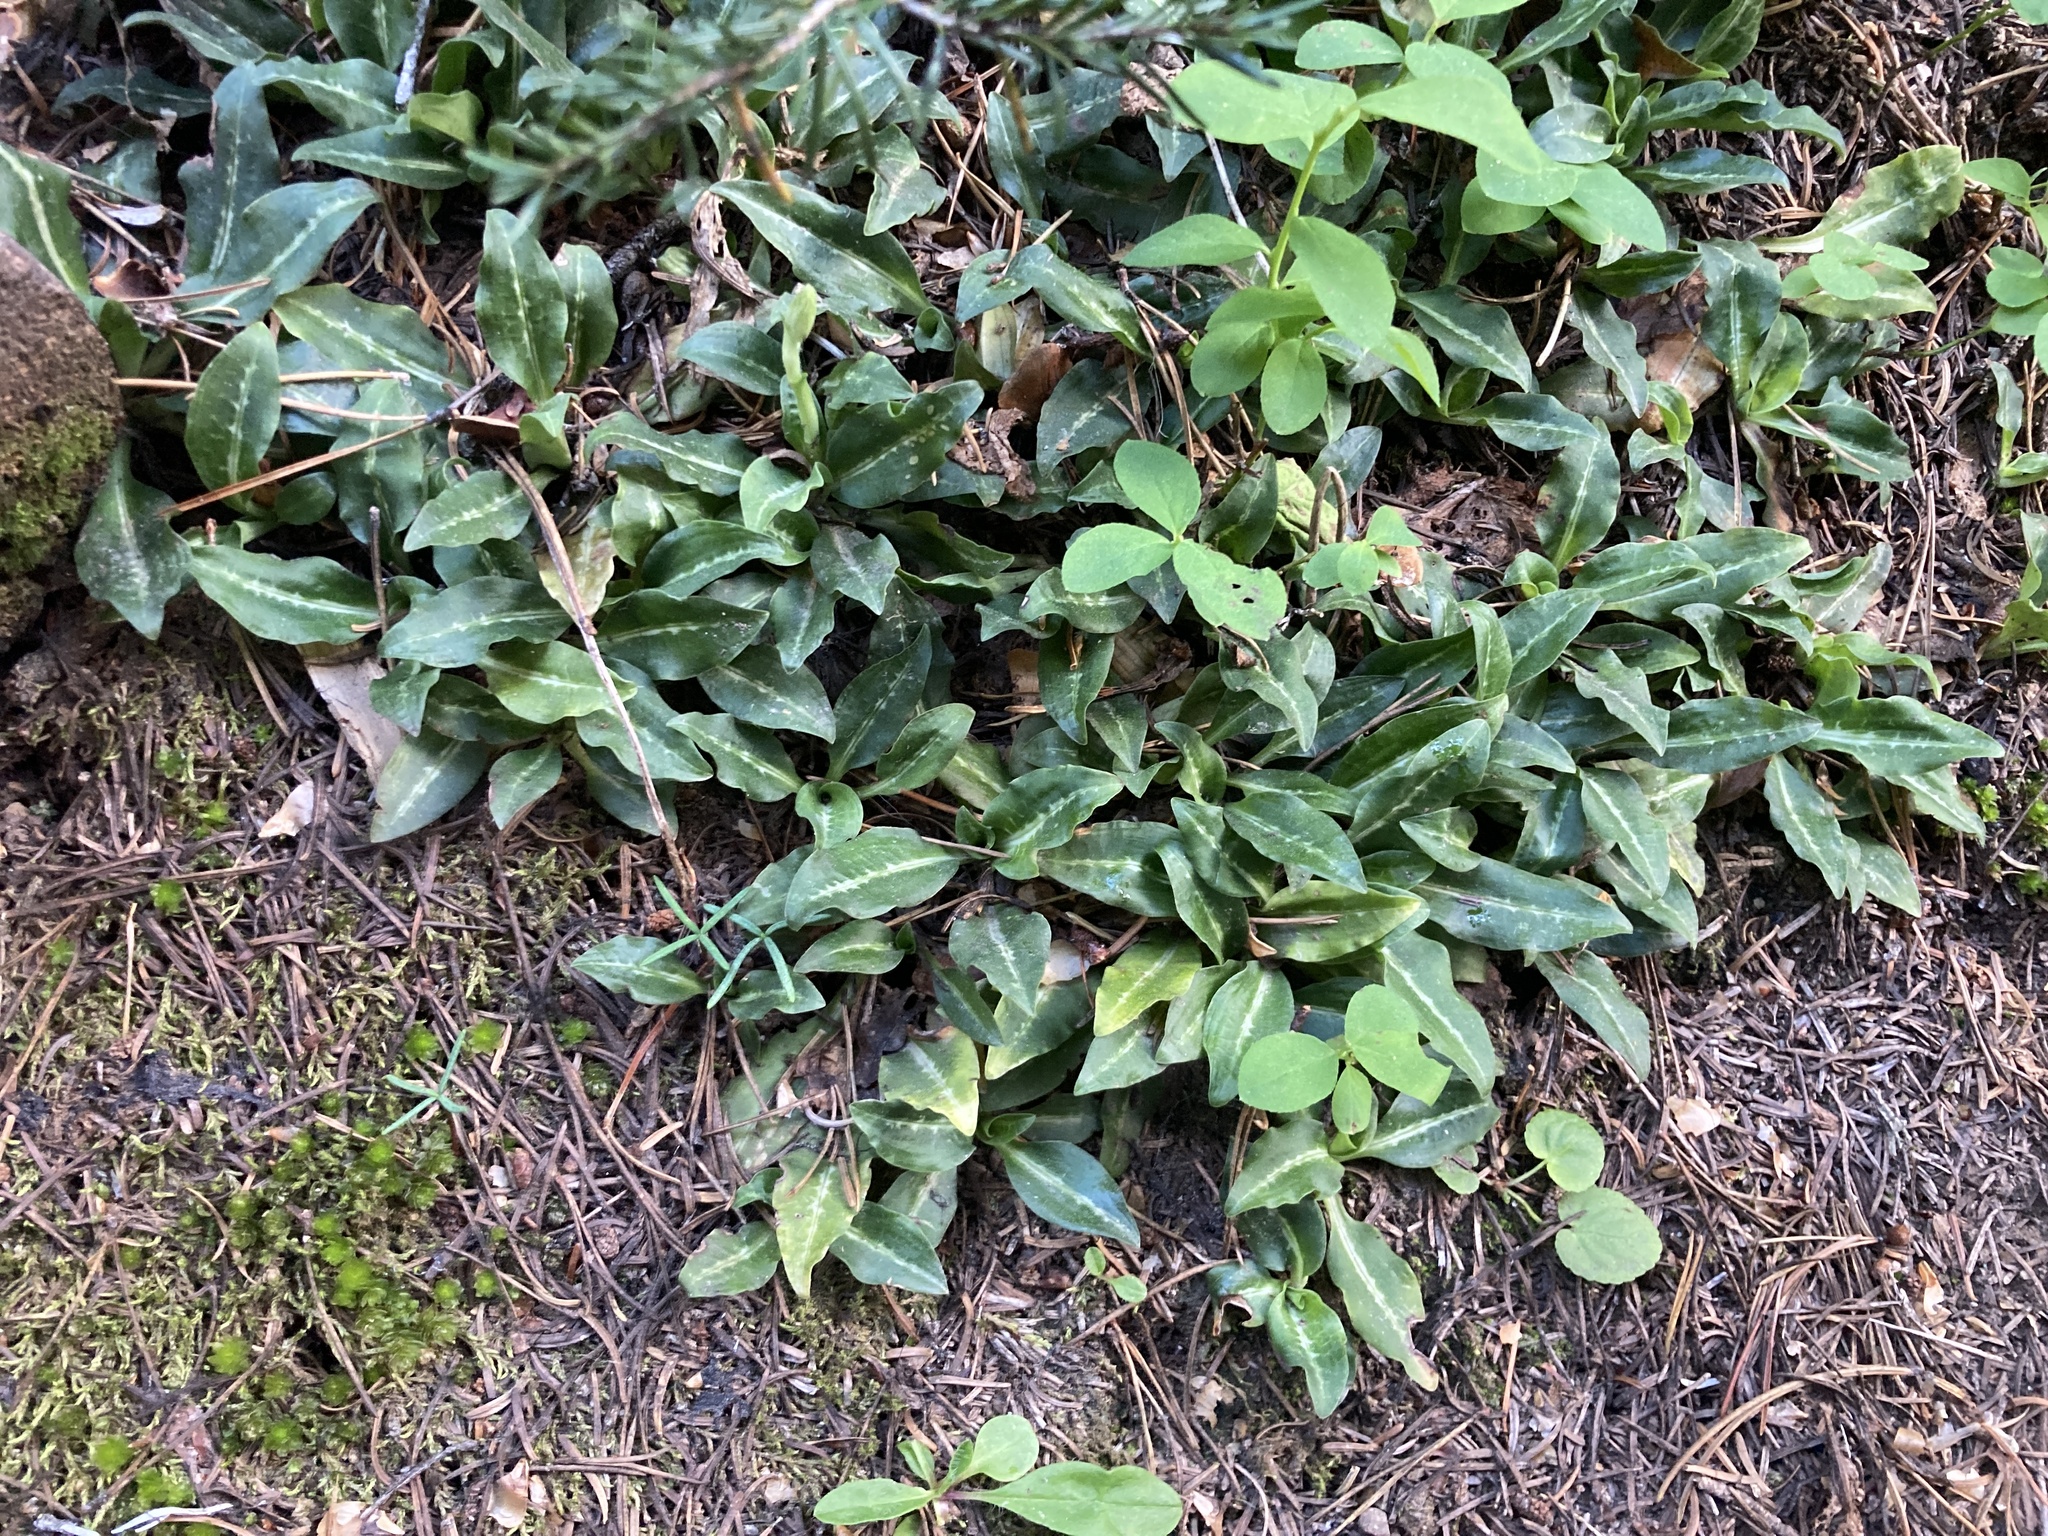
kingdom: Plantae
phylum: Tracheophyta
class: Liliopsida
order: Asparagales
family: Orchidaceae
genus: Goodyera
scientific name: Goodyera oblongifolia
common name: Giant rattlesnake-plantain
